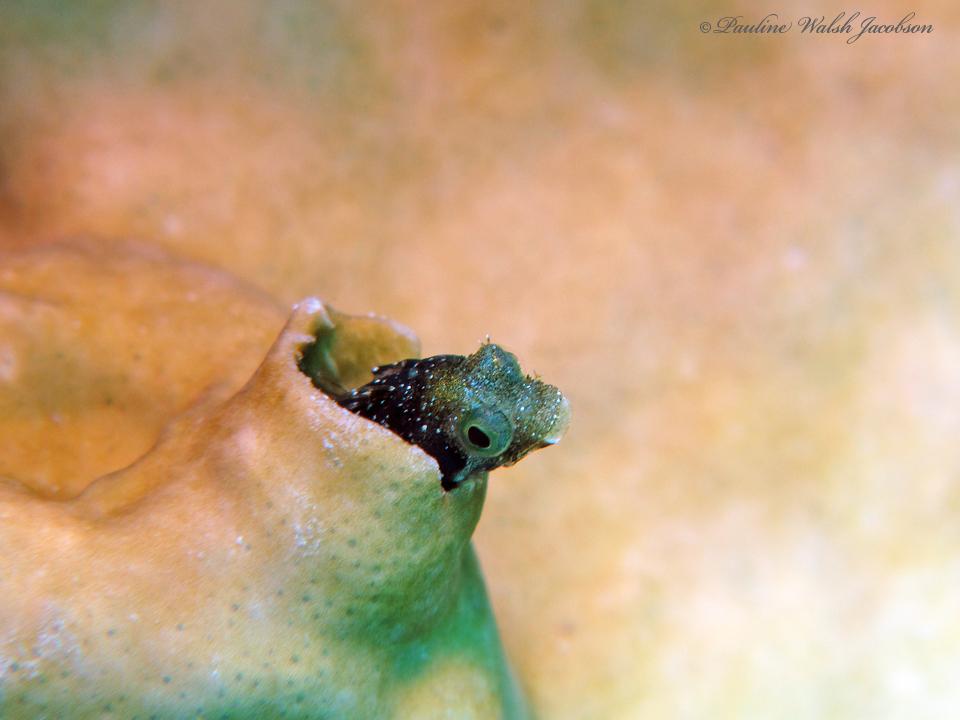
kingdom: Animalia
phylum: Chordata
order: Perciformes
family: Chaenopsidae
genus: Acanthemblemaria
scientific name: Acanthemblemaria spinosa
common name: Spinyhead blenny
